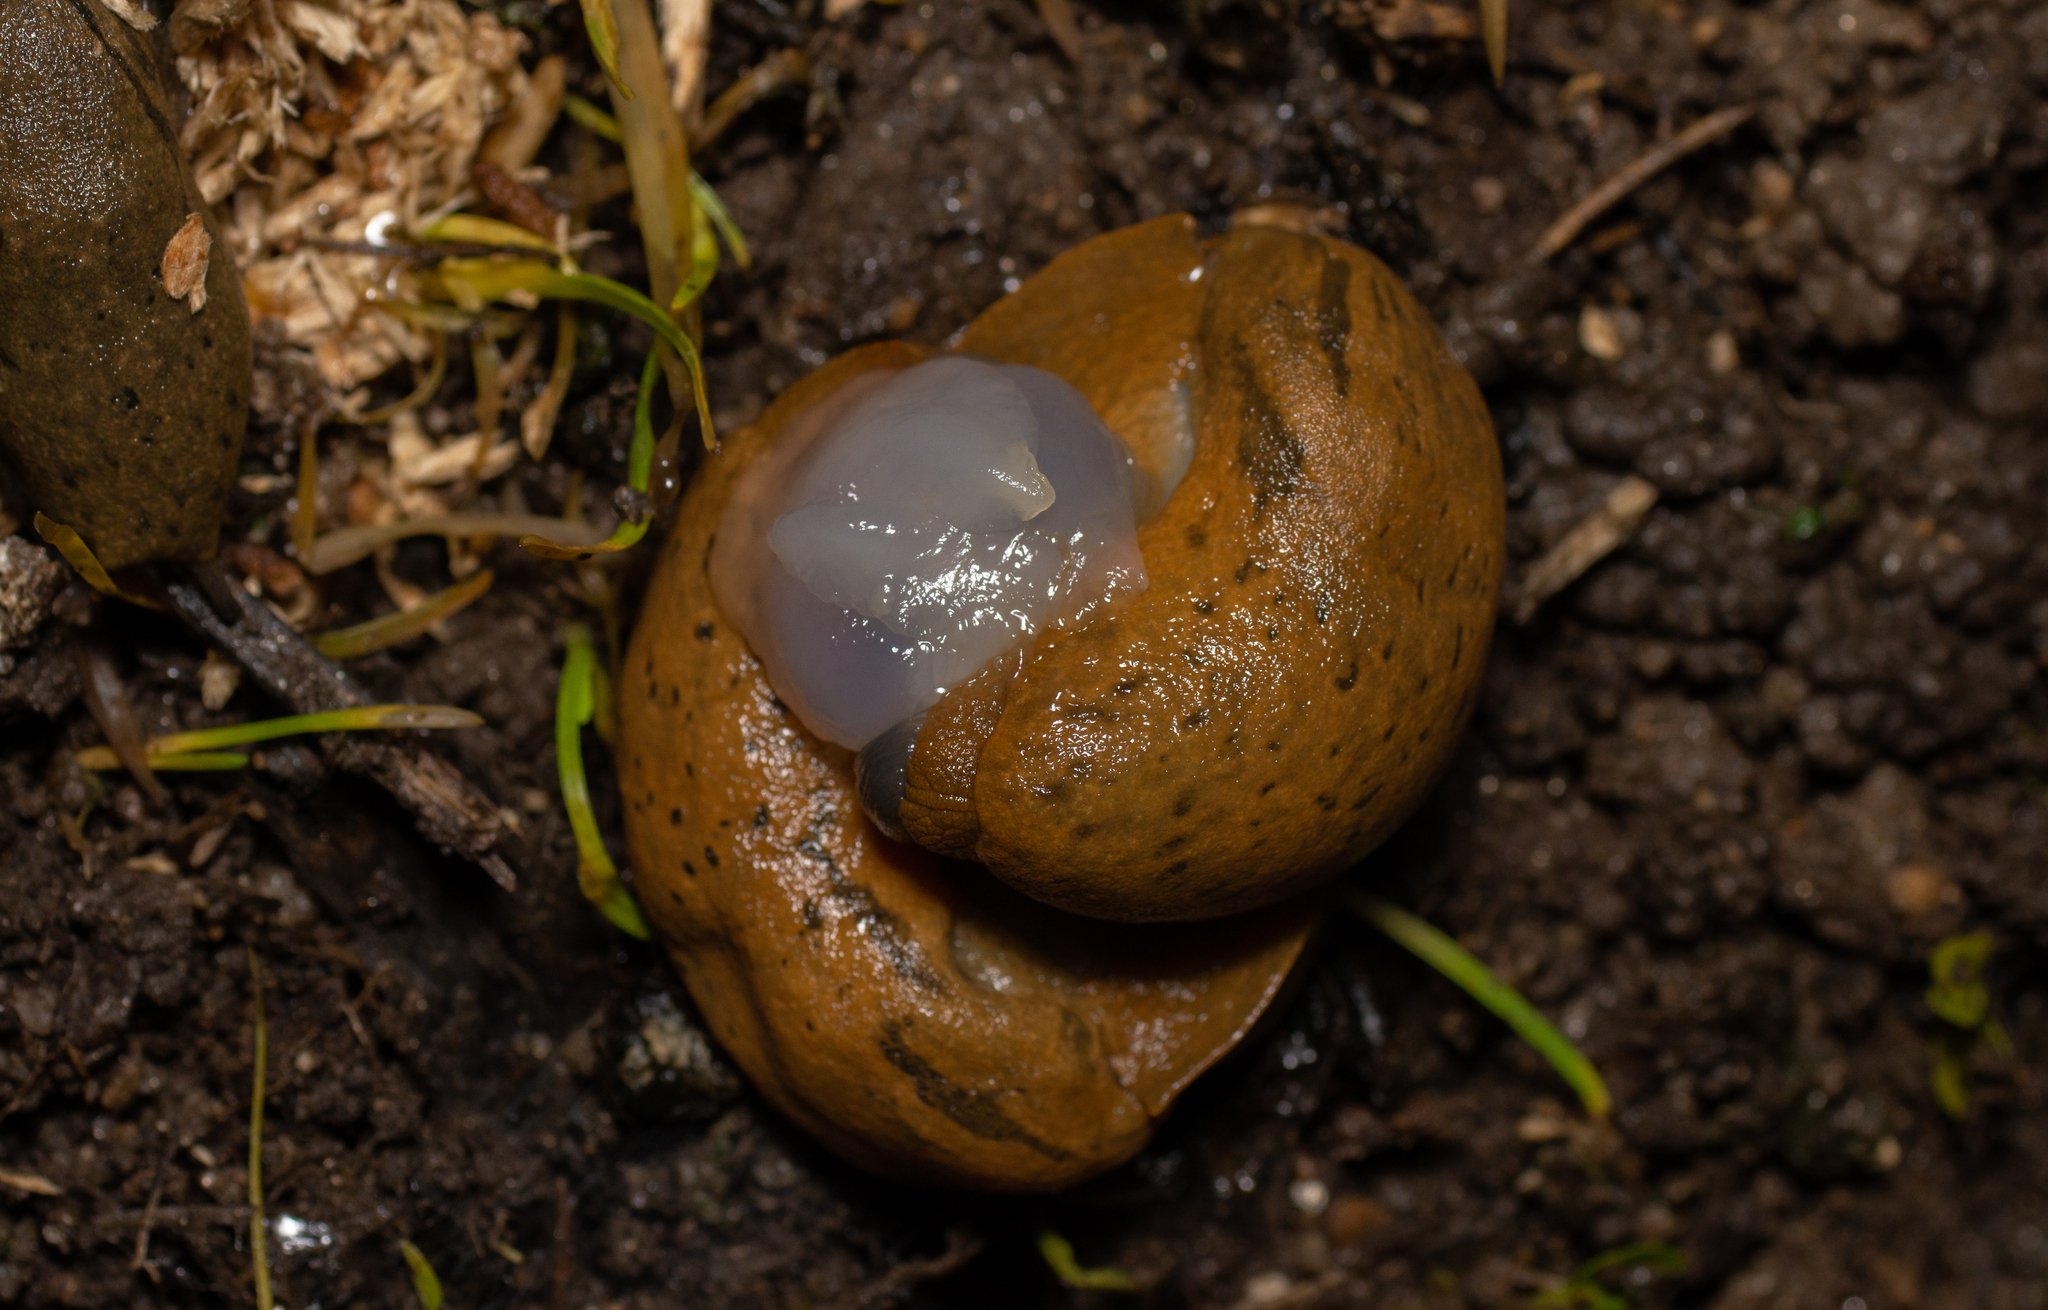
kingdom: Animalia
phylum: Mollusca
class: Gastropoda
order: Stylommatophora
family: Parmacellidae
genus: Drusia
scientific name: Drusia valenciennii
